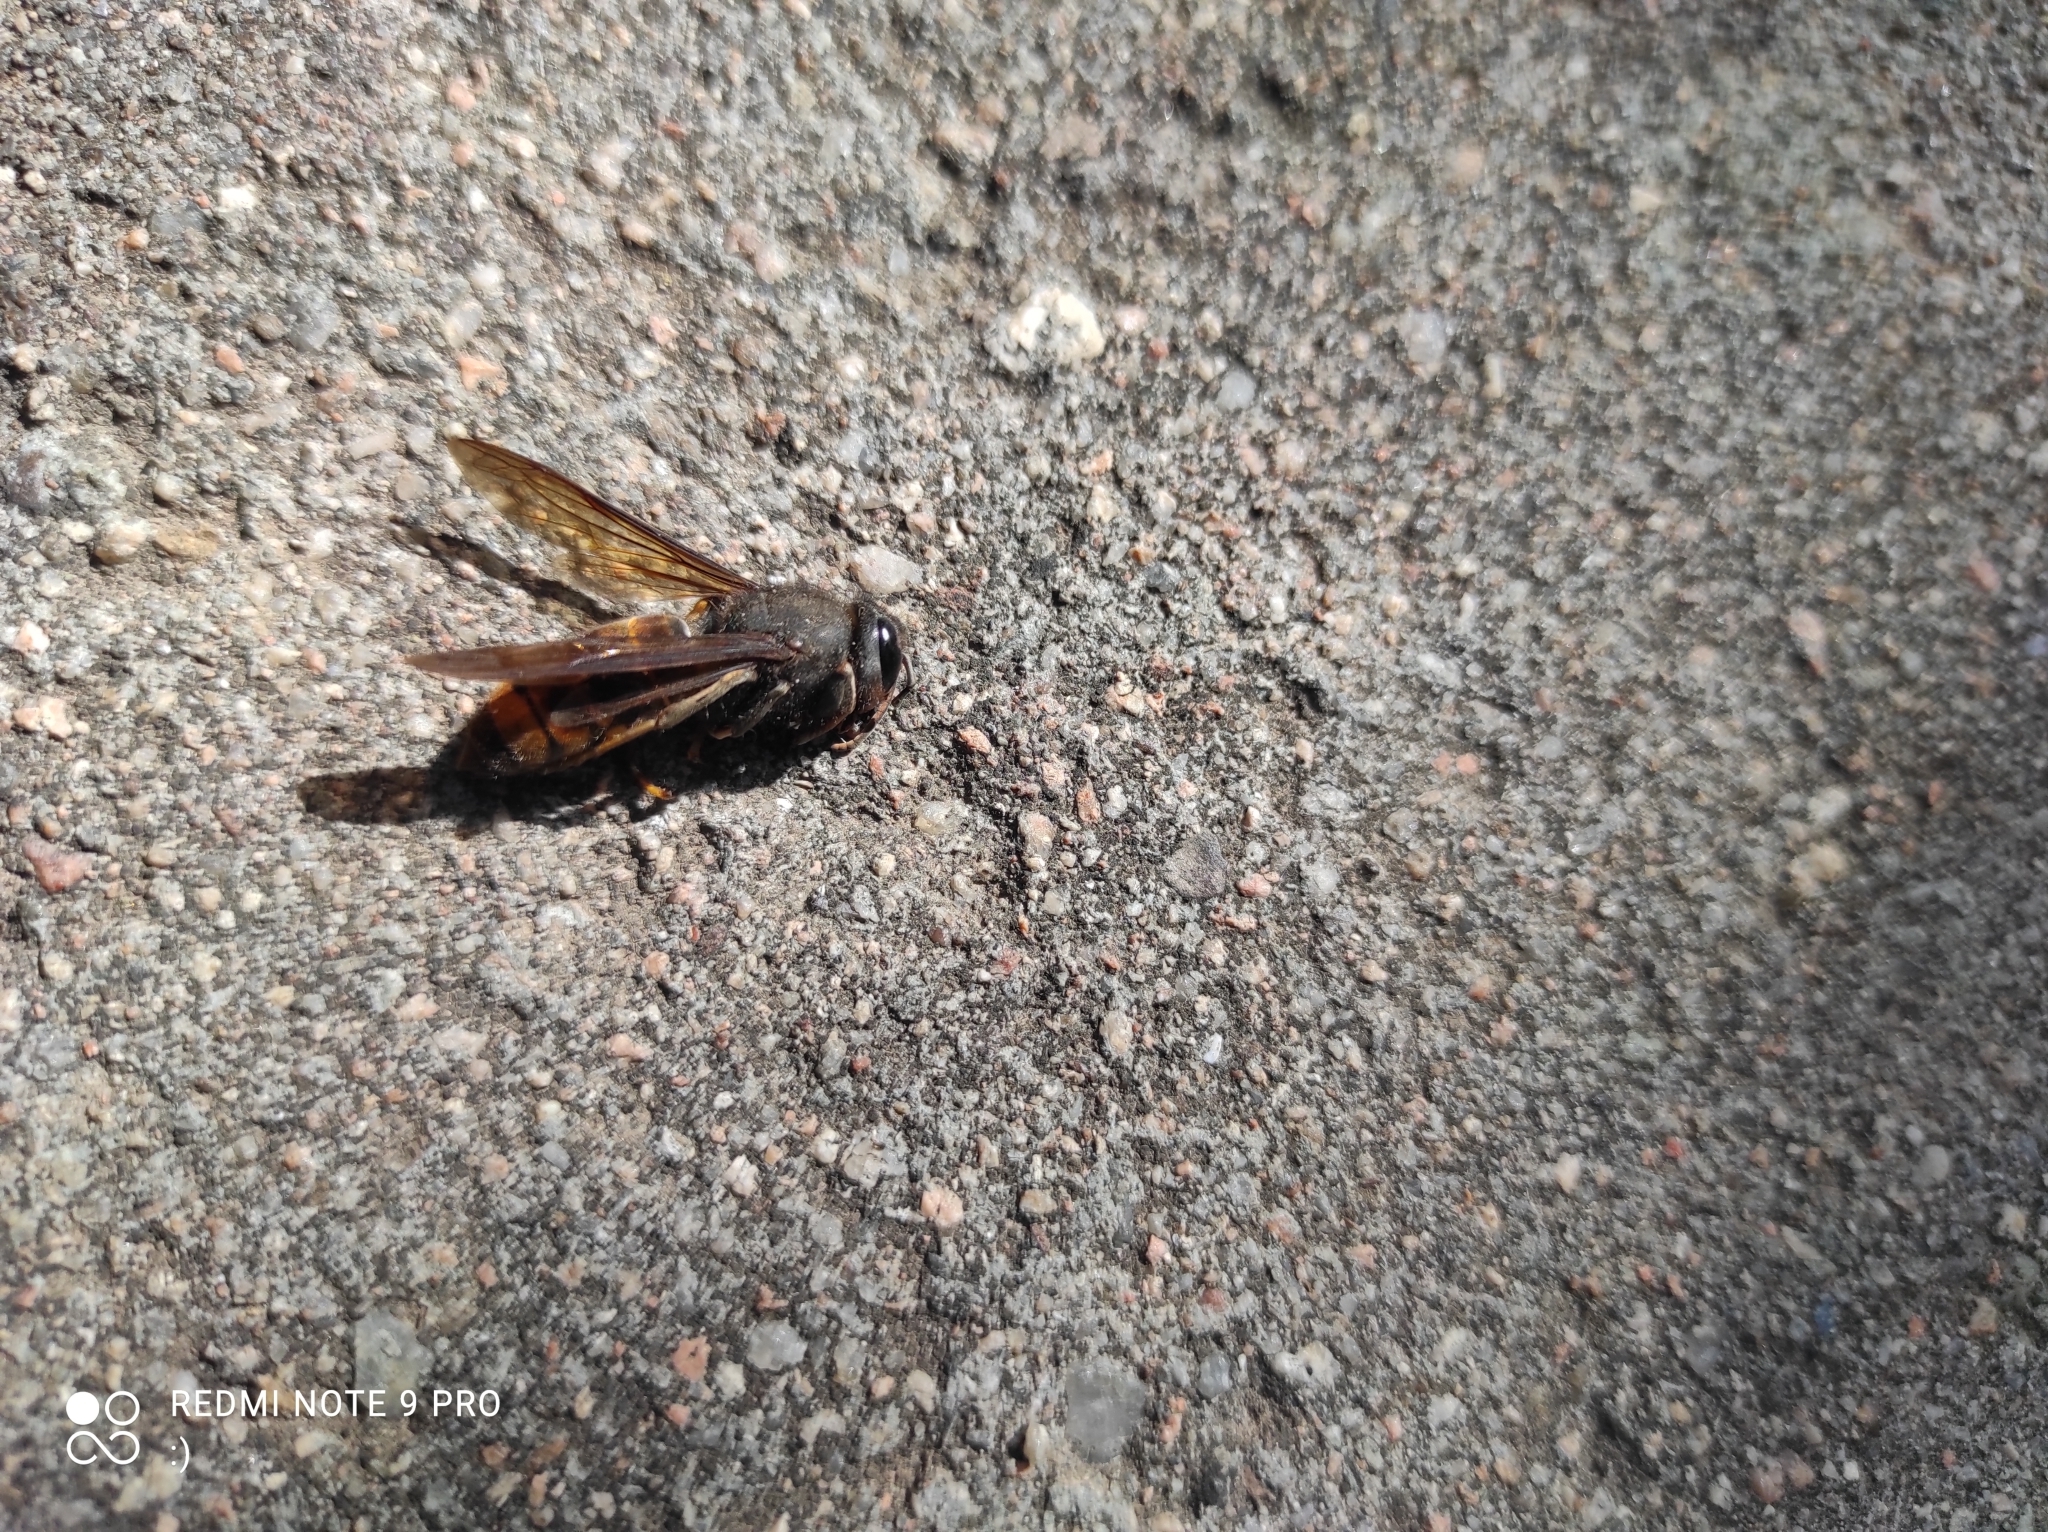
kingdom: Animalia
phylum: Arthropoda
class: Insecta
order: Hymenoptera
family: Vespidae
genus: Vespa
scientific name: Vespa velutina
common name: Asian hornet
